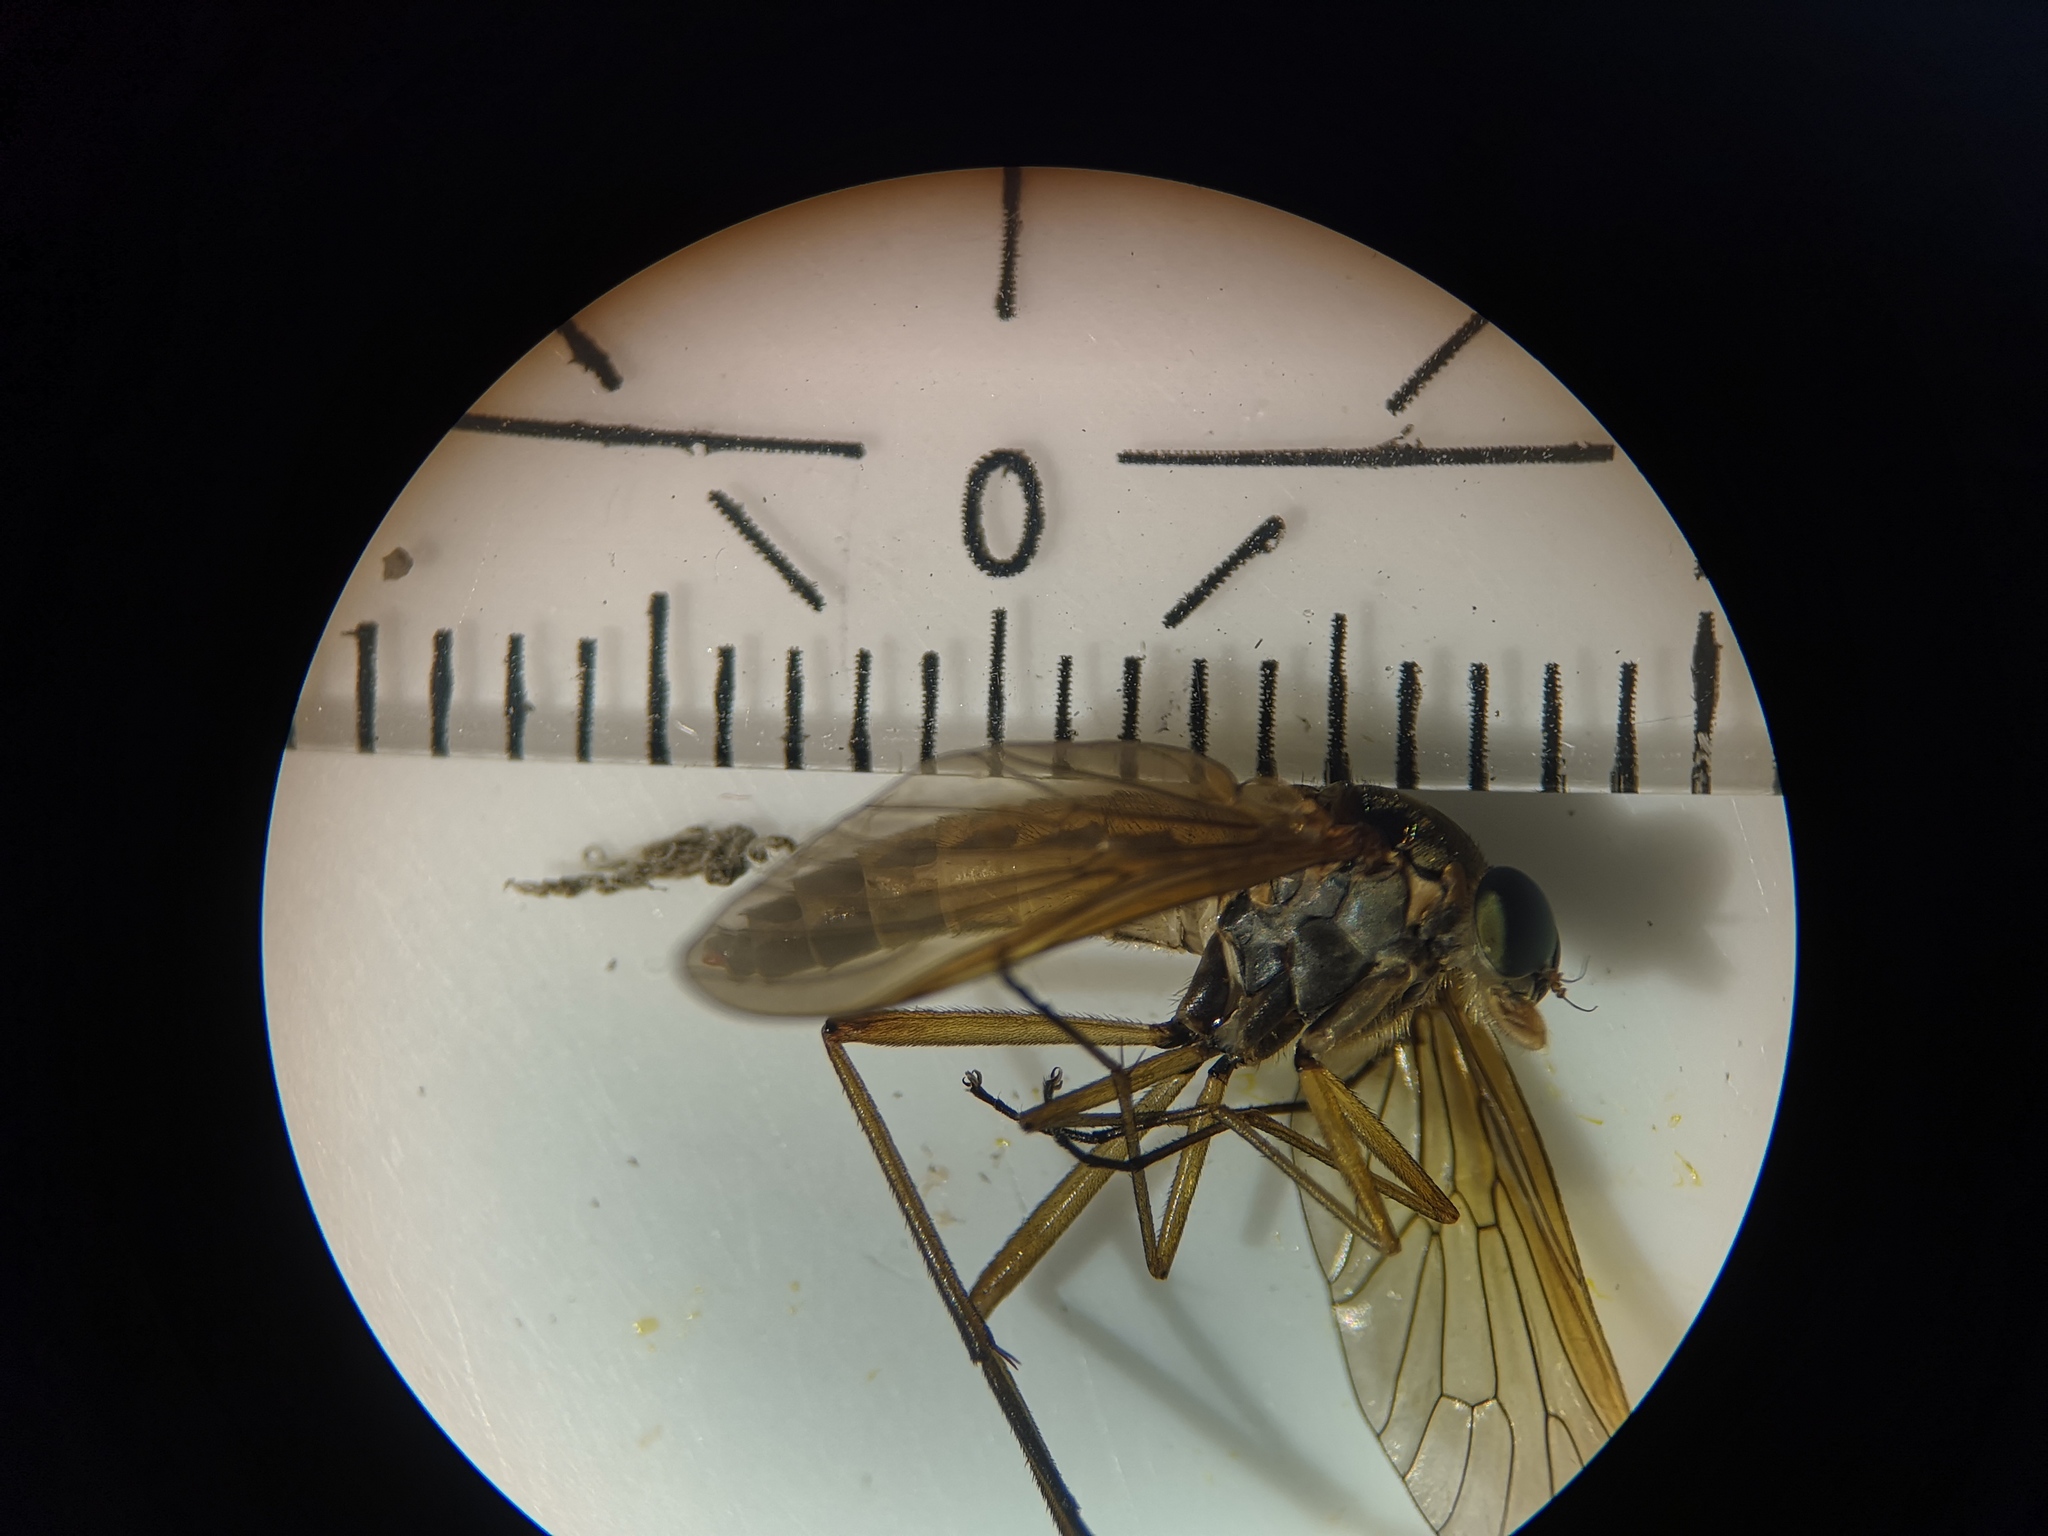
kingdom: Animalia
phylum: Arthropoda
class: Insecta
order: Diptera
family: Rhagionidae
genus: Rhagio
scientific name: Rhagio tringaria
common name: Marsh snipefly
